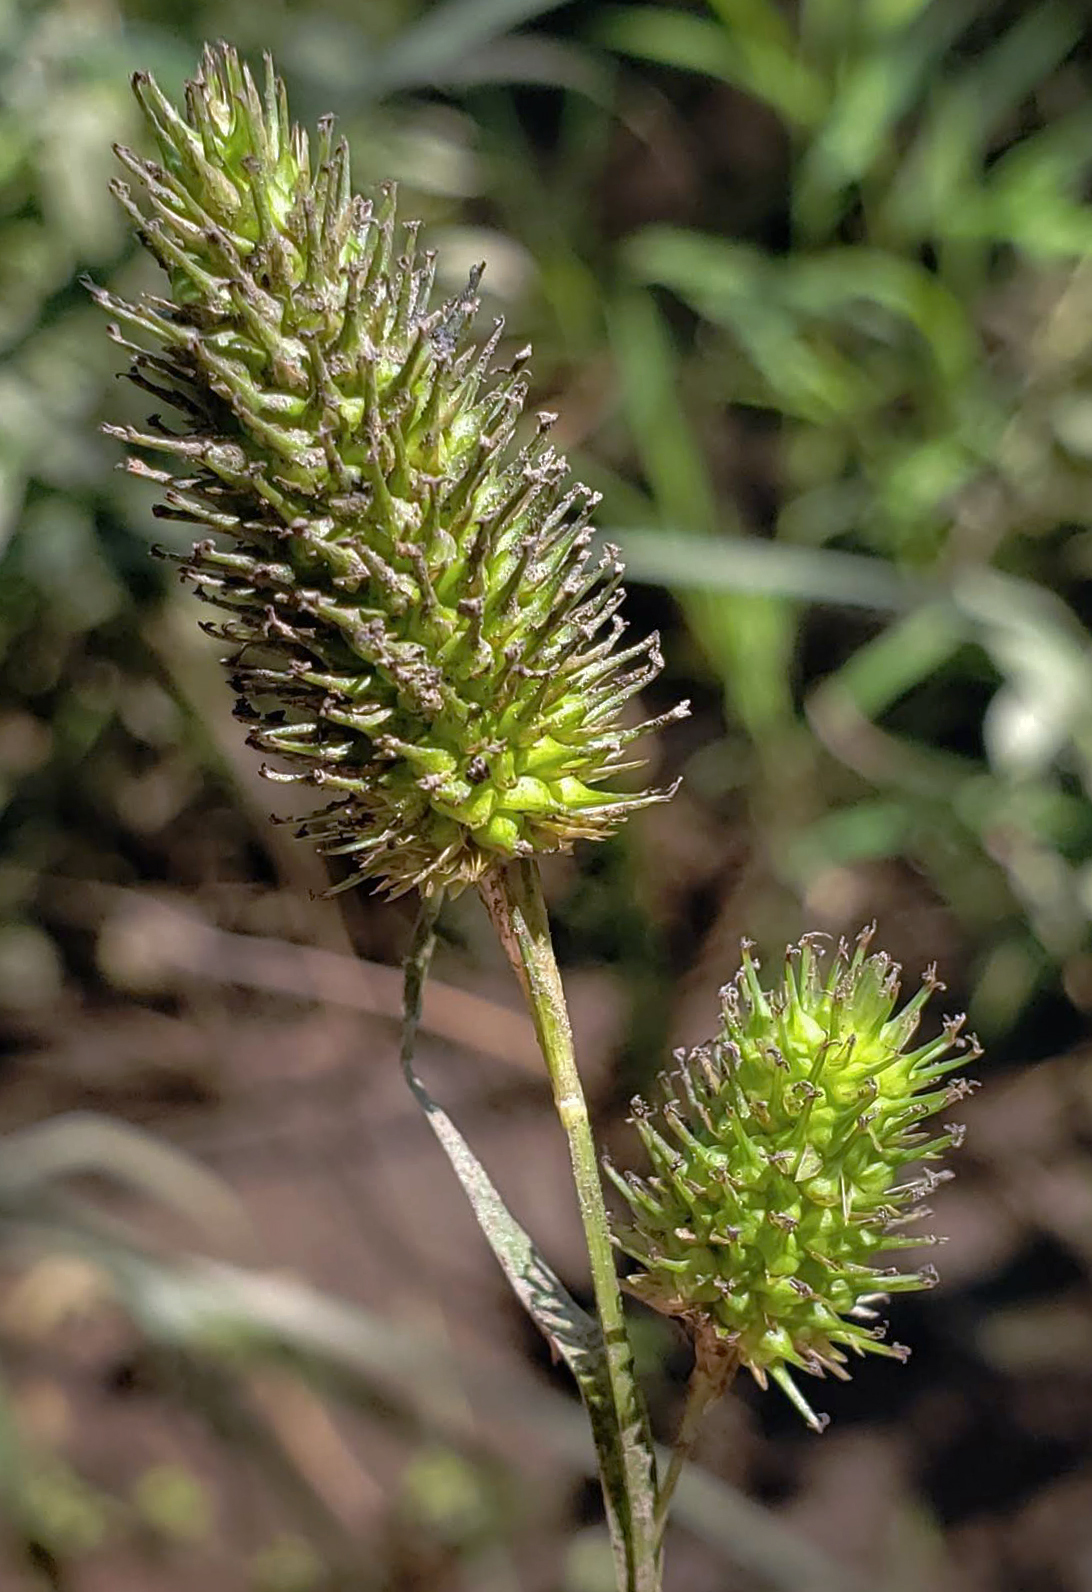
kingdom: Plantae
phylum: Tracheophyta
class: Liliopsida
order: Poales
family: Cyperaceae
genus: Carex
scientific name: Carex typhina
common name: Cattail sedge
